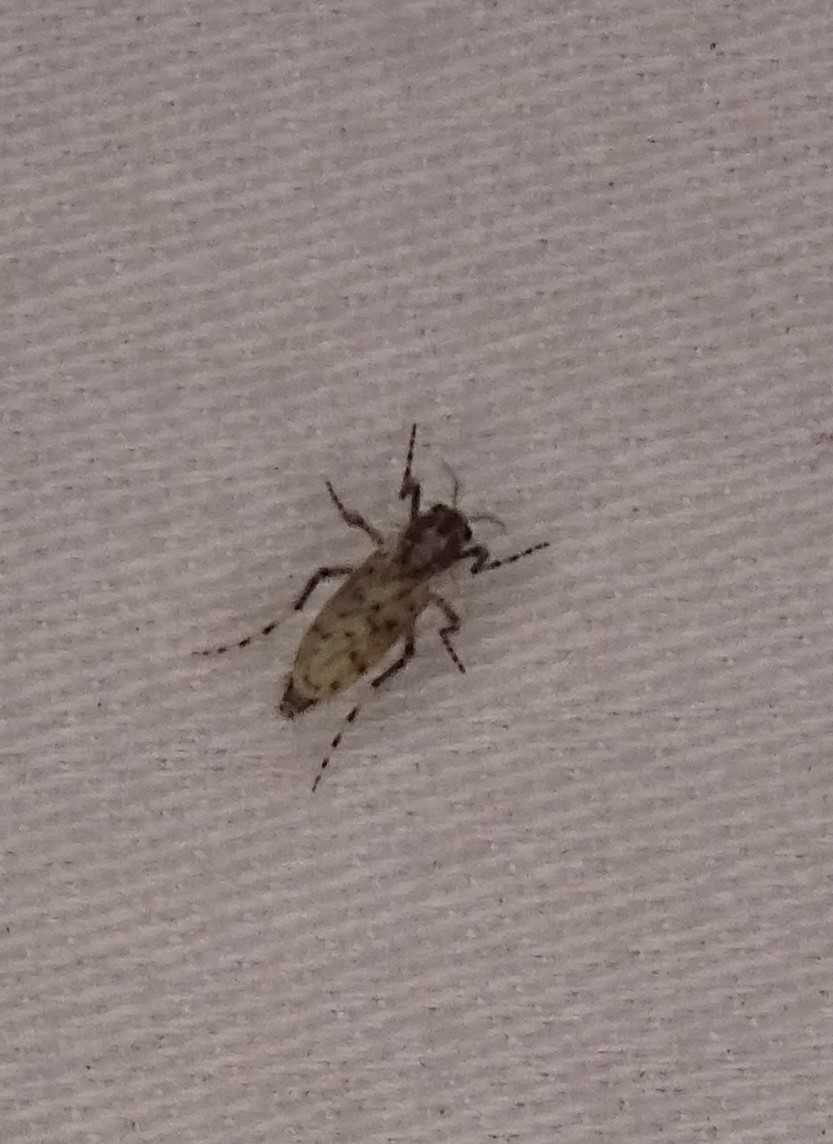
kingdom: Animalia
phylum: Arthropoda
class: Insecta
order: Diptera
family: Chaoboridae
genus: Chaoborus
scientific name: Chaoborus punctipennis
